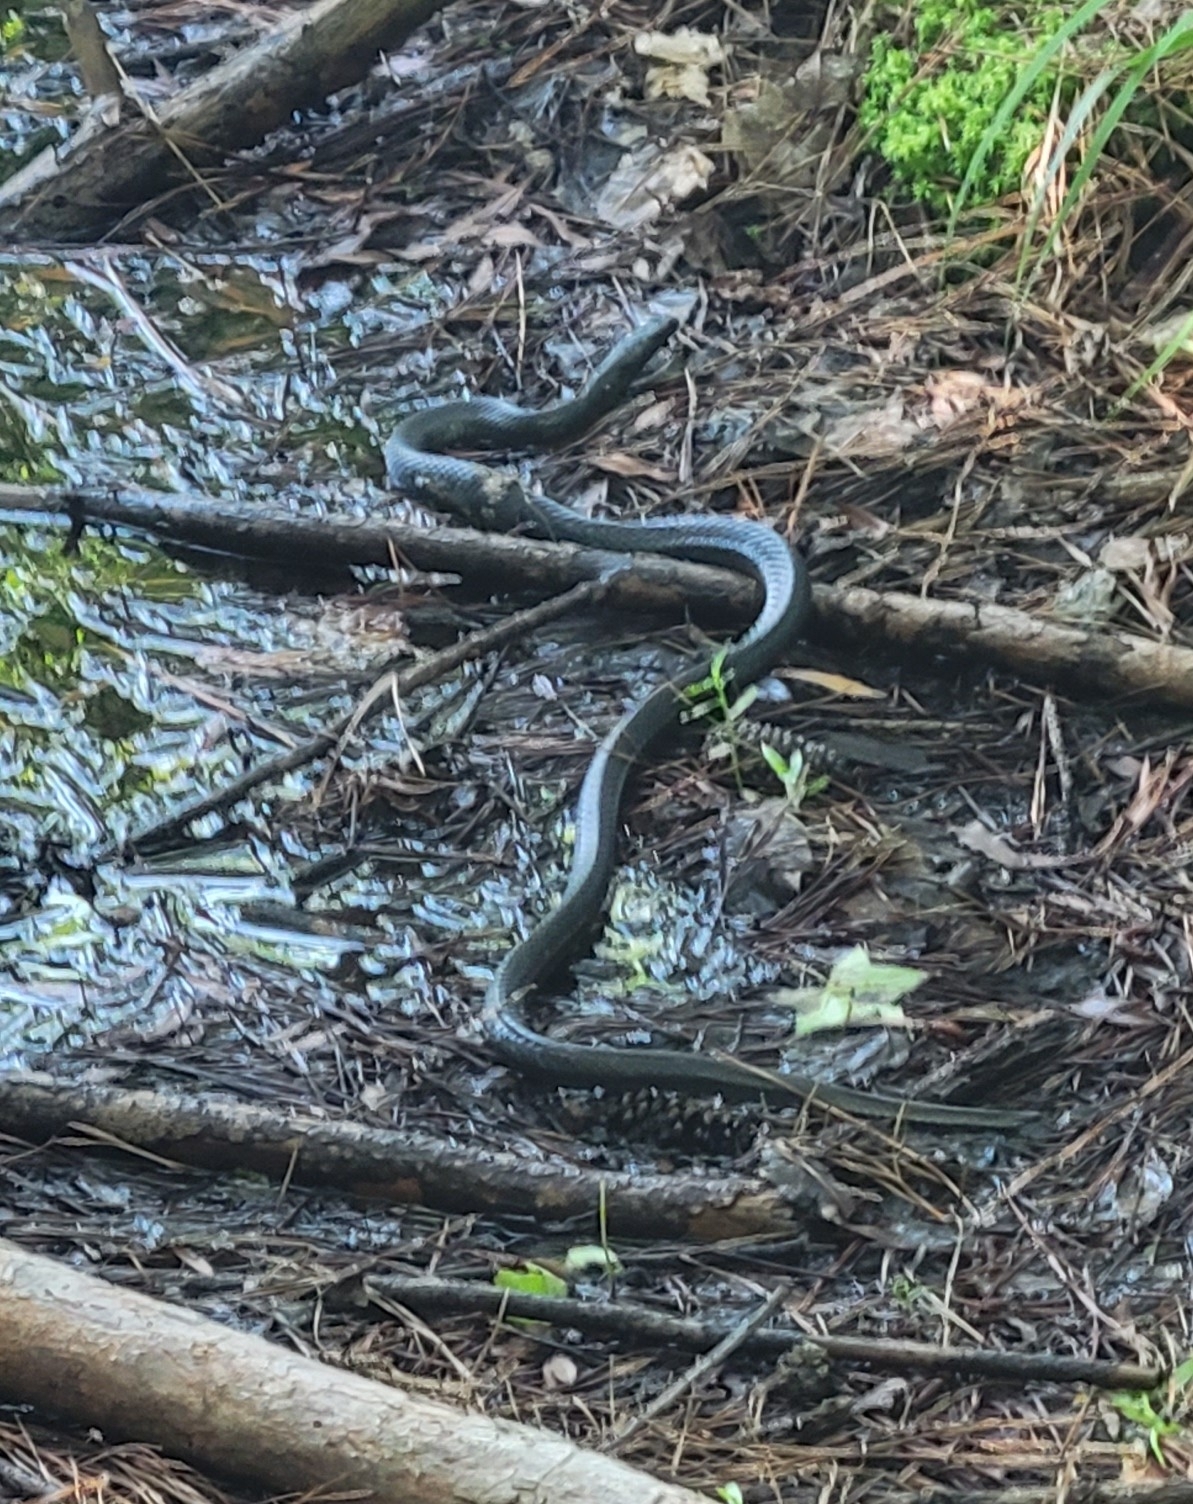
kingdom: Animalia
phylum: Chordata
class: Squamata
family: Colubridae
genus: Coluber
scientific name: Coluber constrictor
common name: Eastern racer
